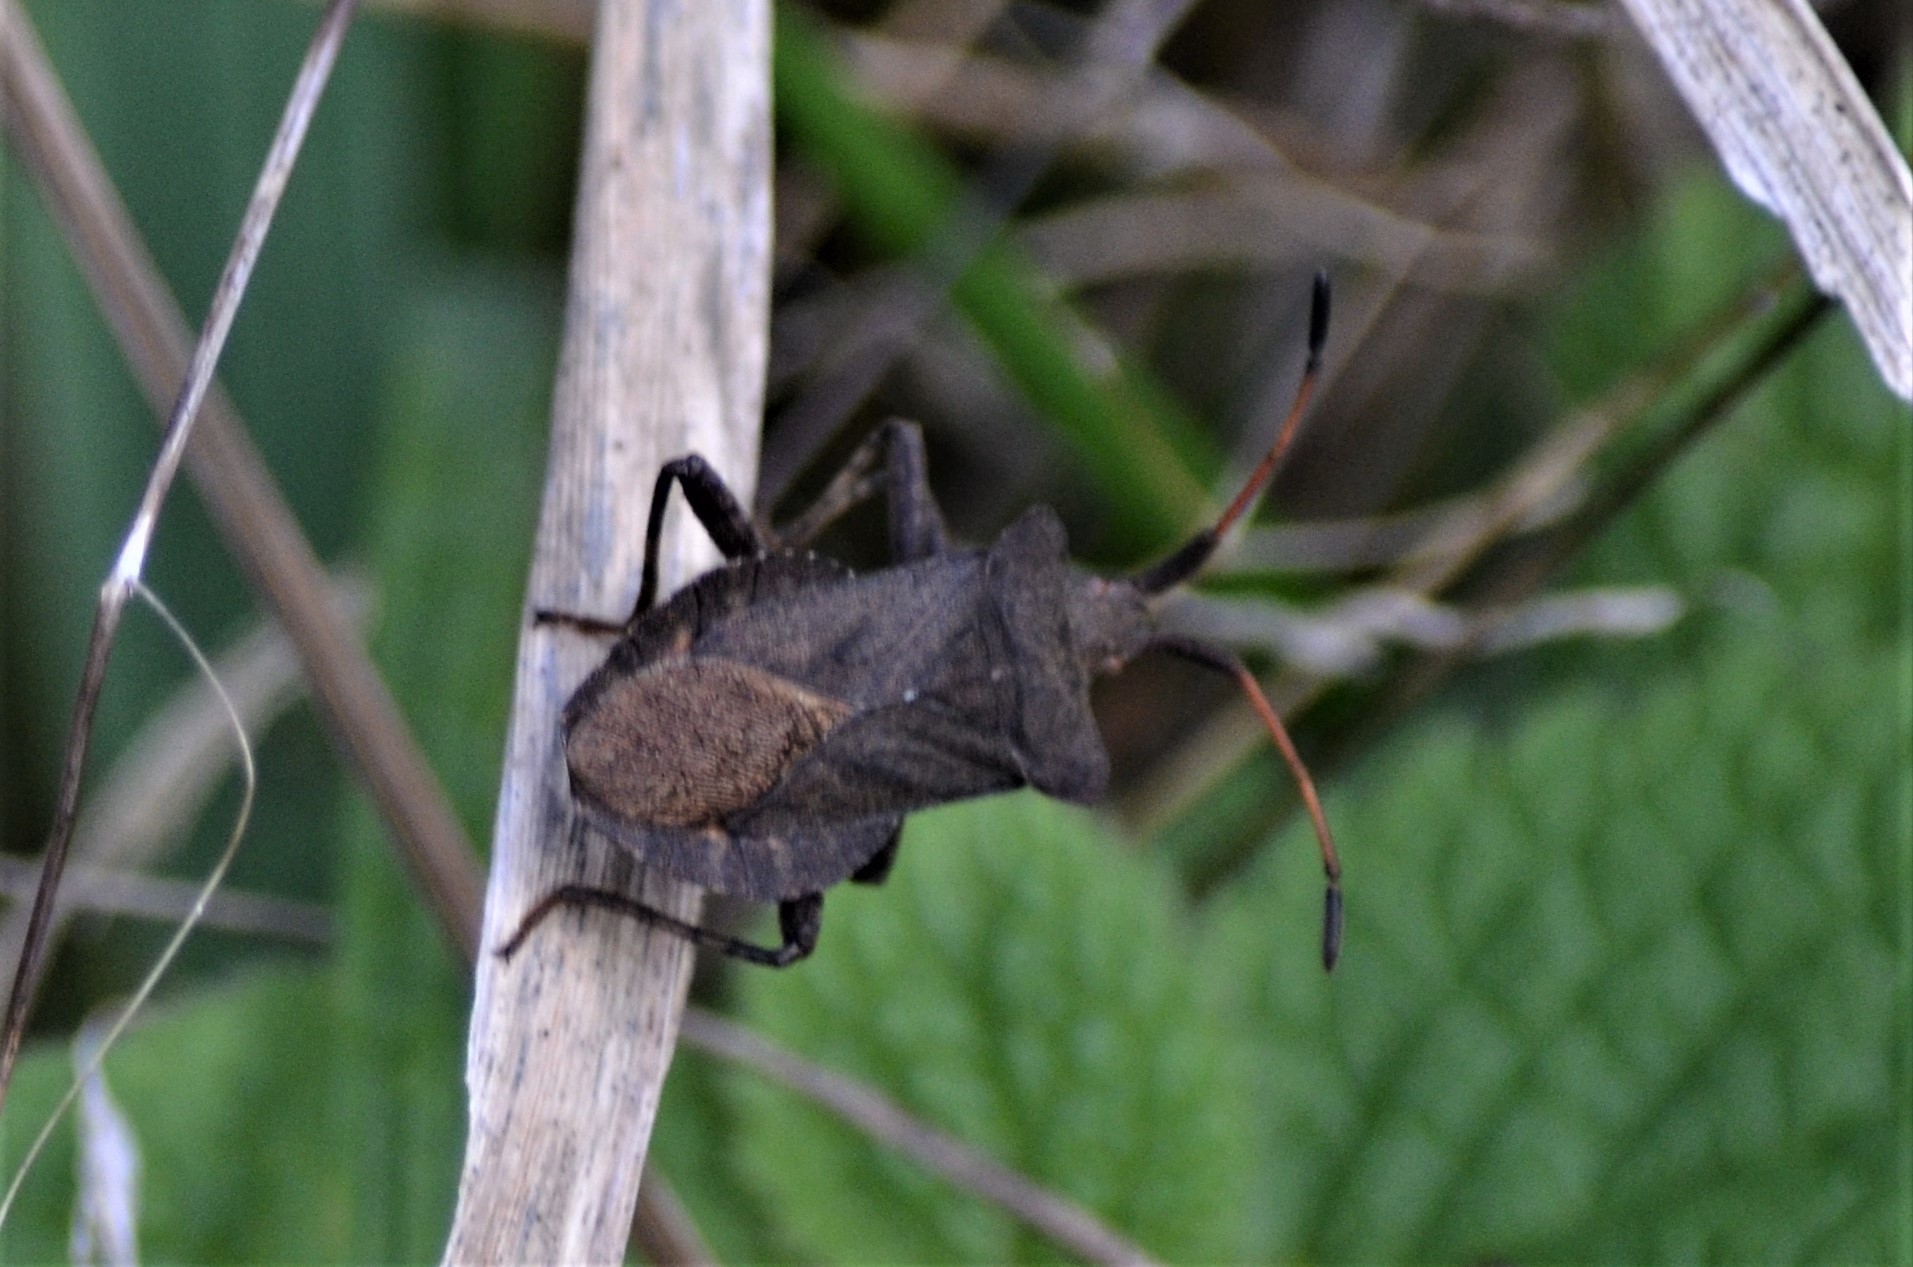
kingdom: Animalia
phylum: Arthropoda
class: Insecta
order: Hemiptera
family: Coreidae
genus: Coreus
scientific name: Coreus marginatus
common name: Dock bug
